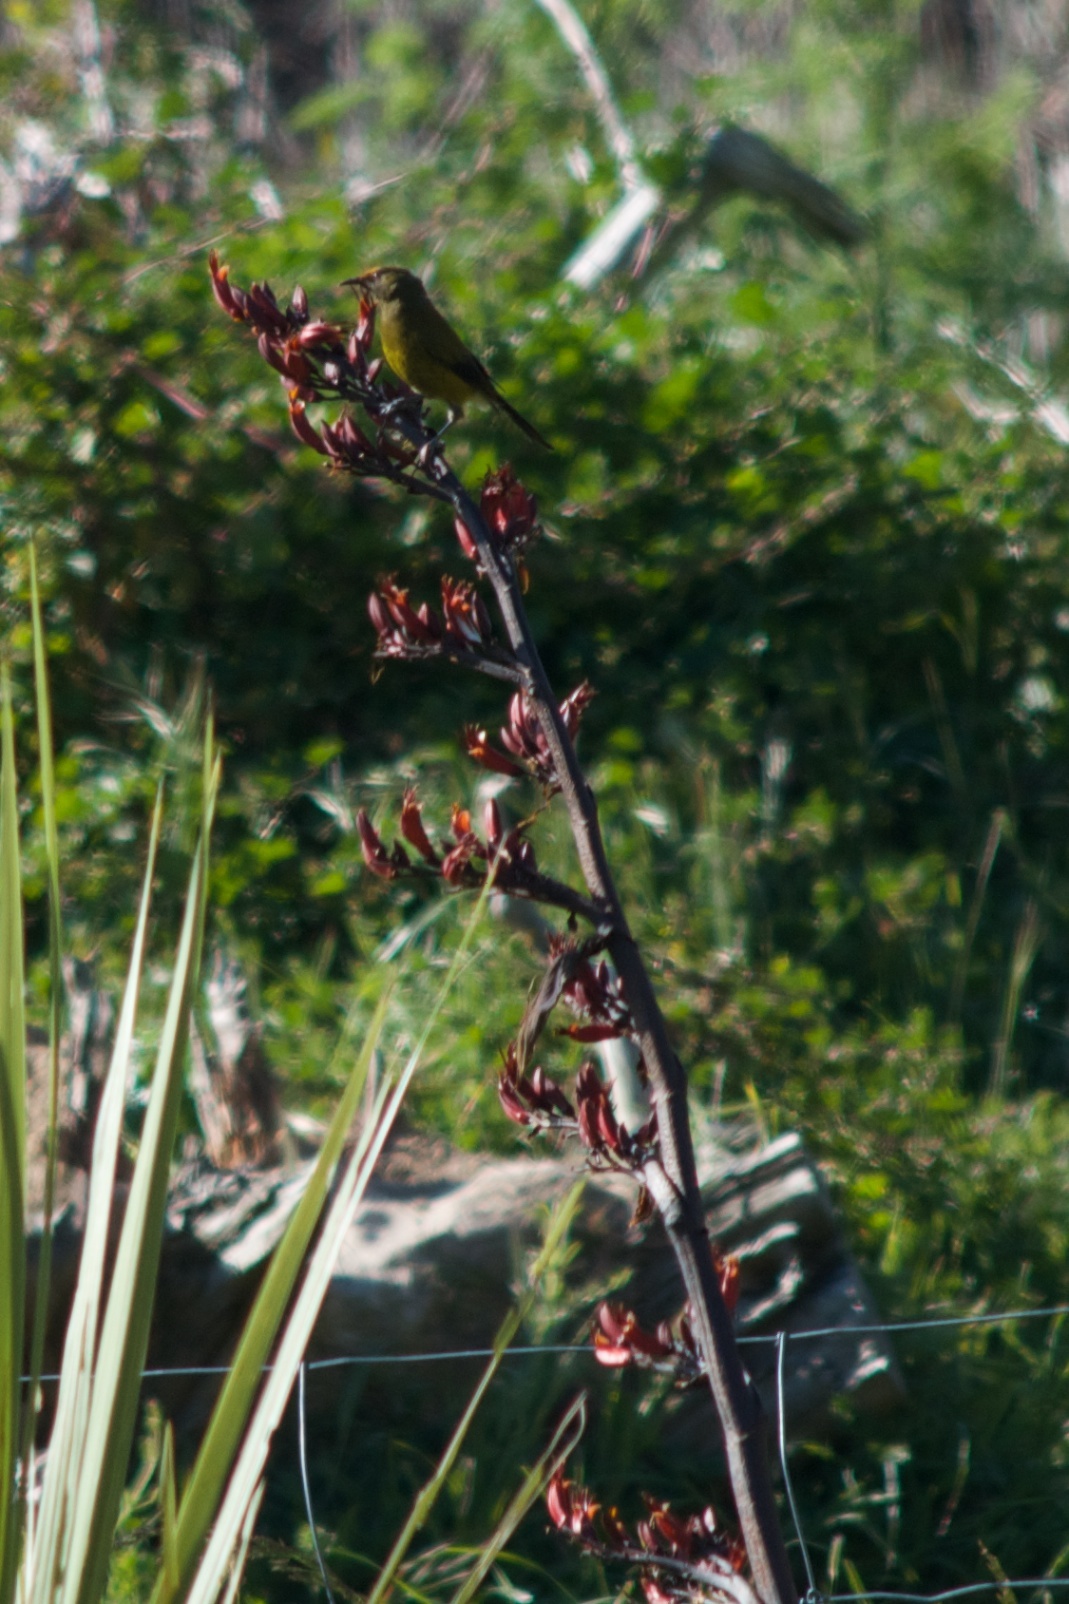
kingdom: Animalia
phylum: Chordata
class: Aves
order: Passeriformes
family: Meliphagidae
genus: Anthornis
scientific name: Anthornis melanura
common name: New zealand bellbird
